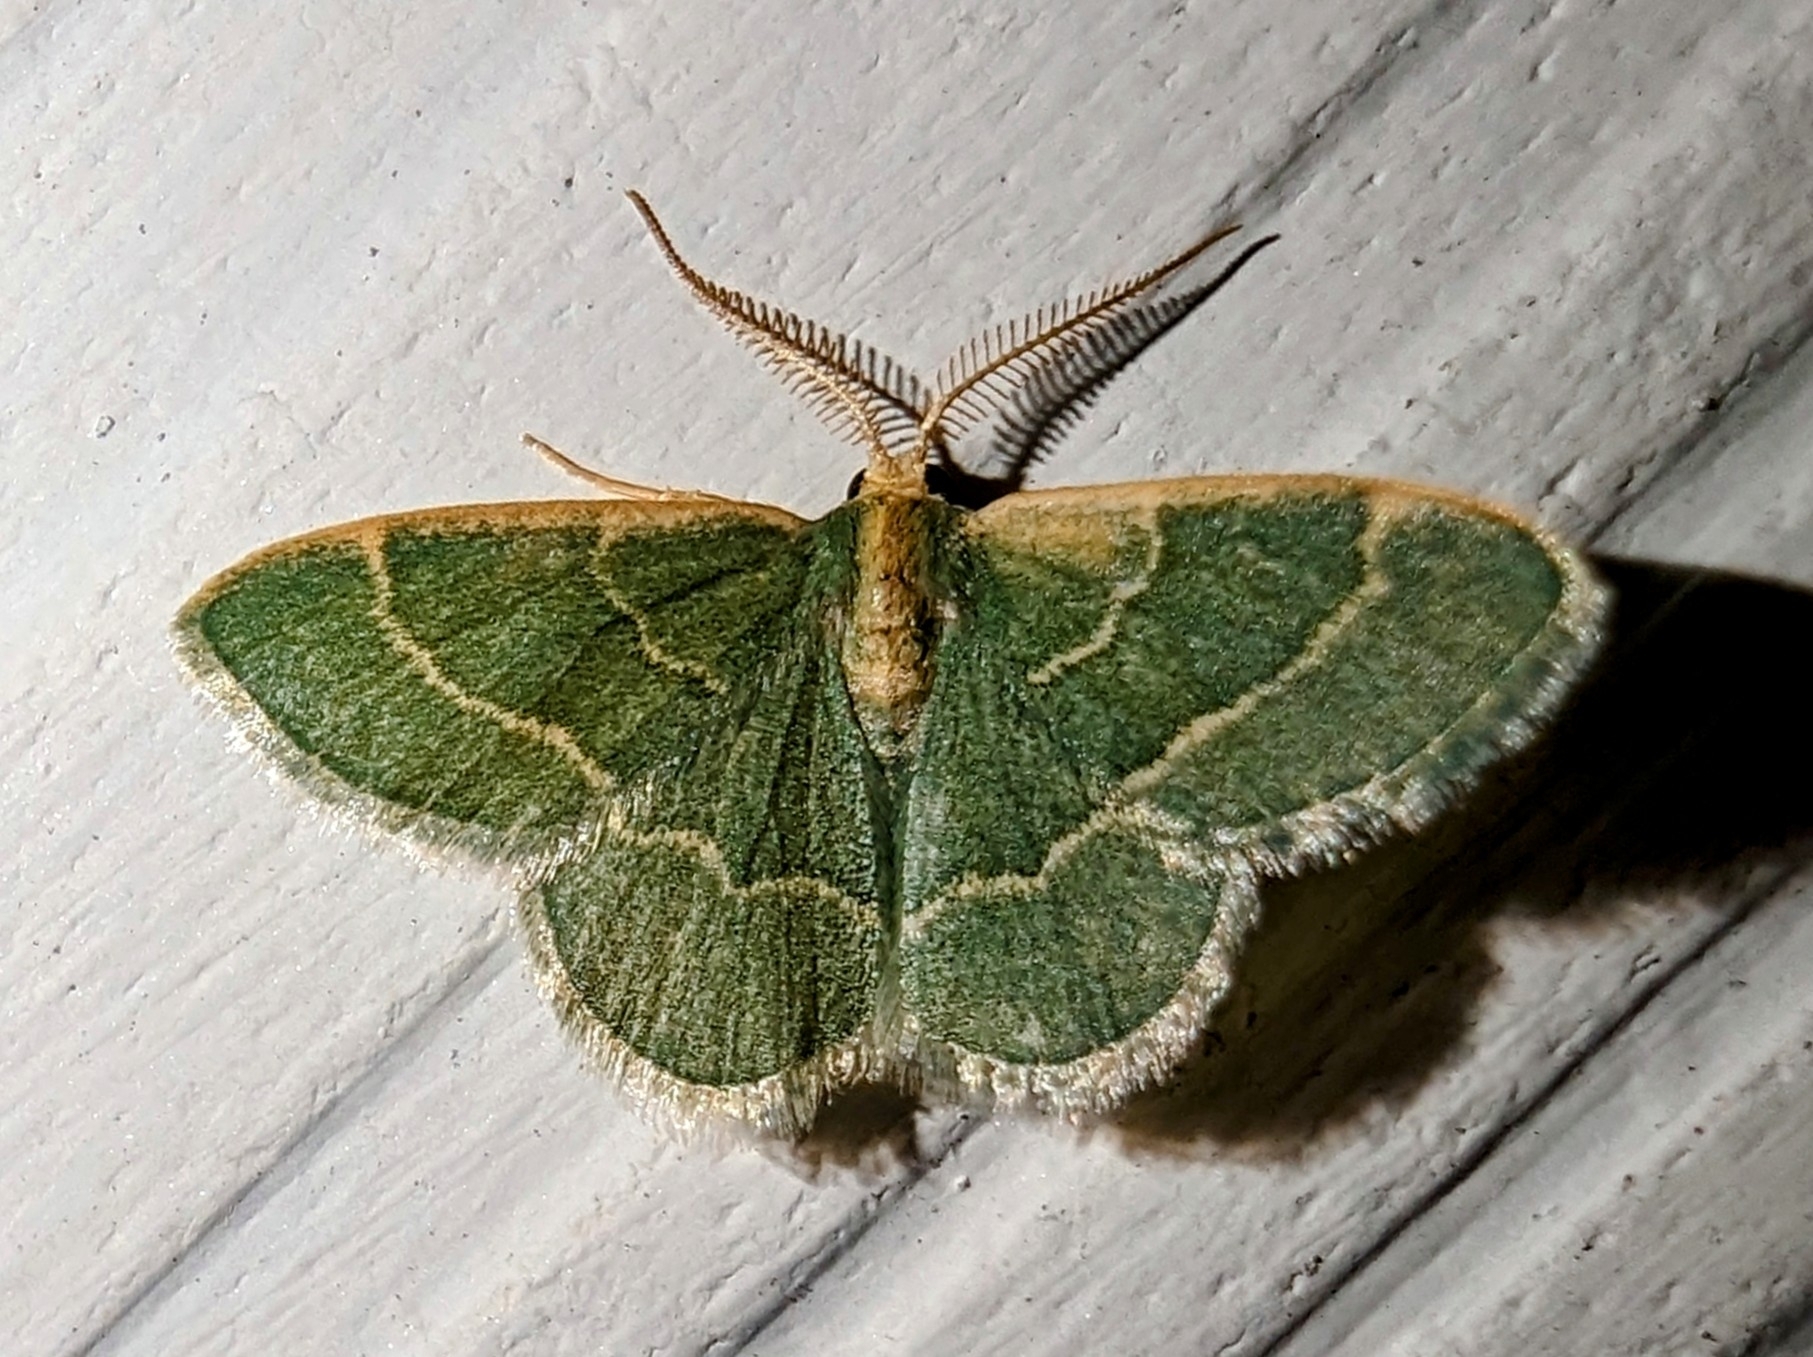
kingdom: Animalia
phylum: Arthropoda
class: Insecta
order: Lepidoptera
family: Geometridae
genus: Chlorochlamys
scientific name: Chlorochlamys phyllinaria
